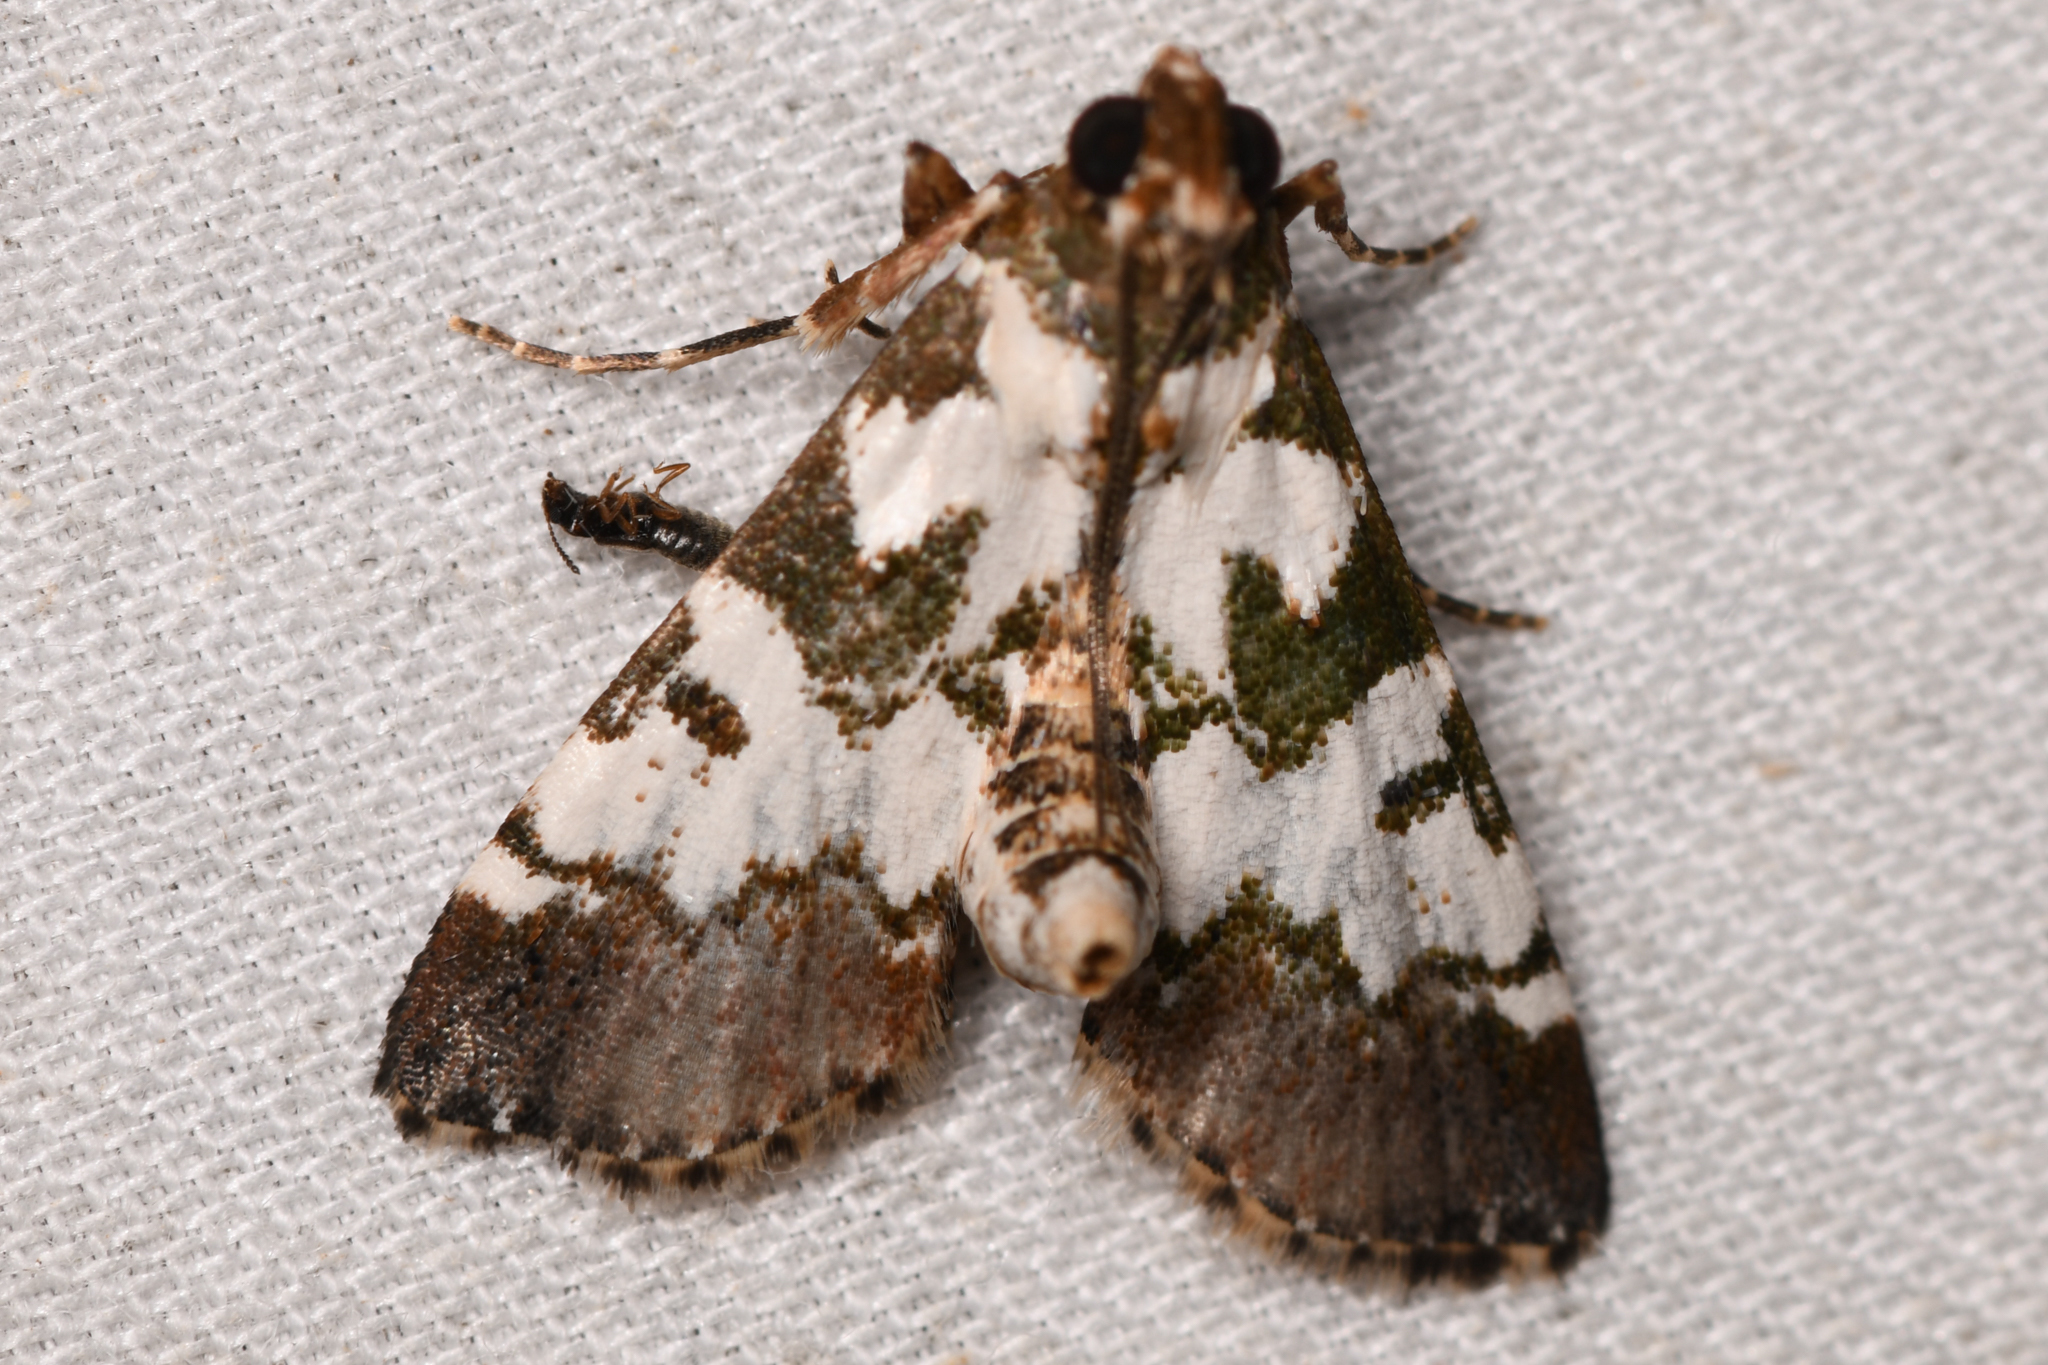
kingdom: Animalia
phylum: Arthropoda
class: Insecta
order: Lepidoptera
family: Pyralidae
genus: Milgithea
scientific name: Milgithea suramisa
